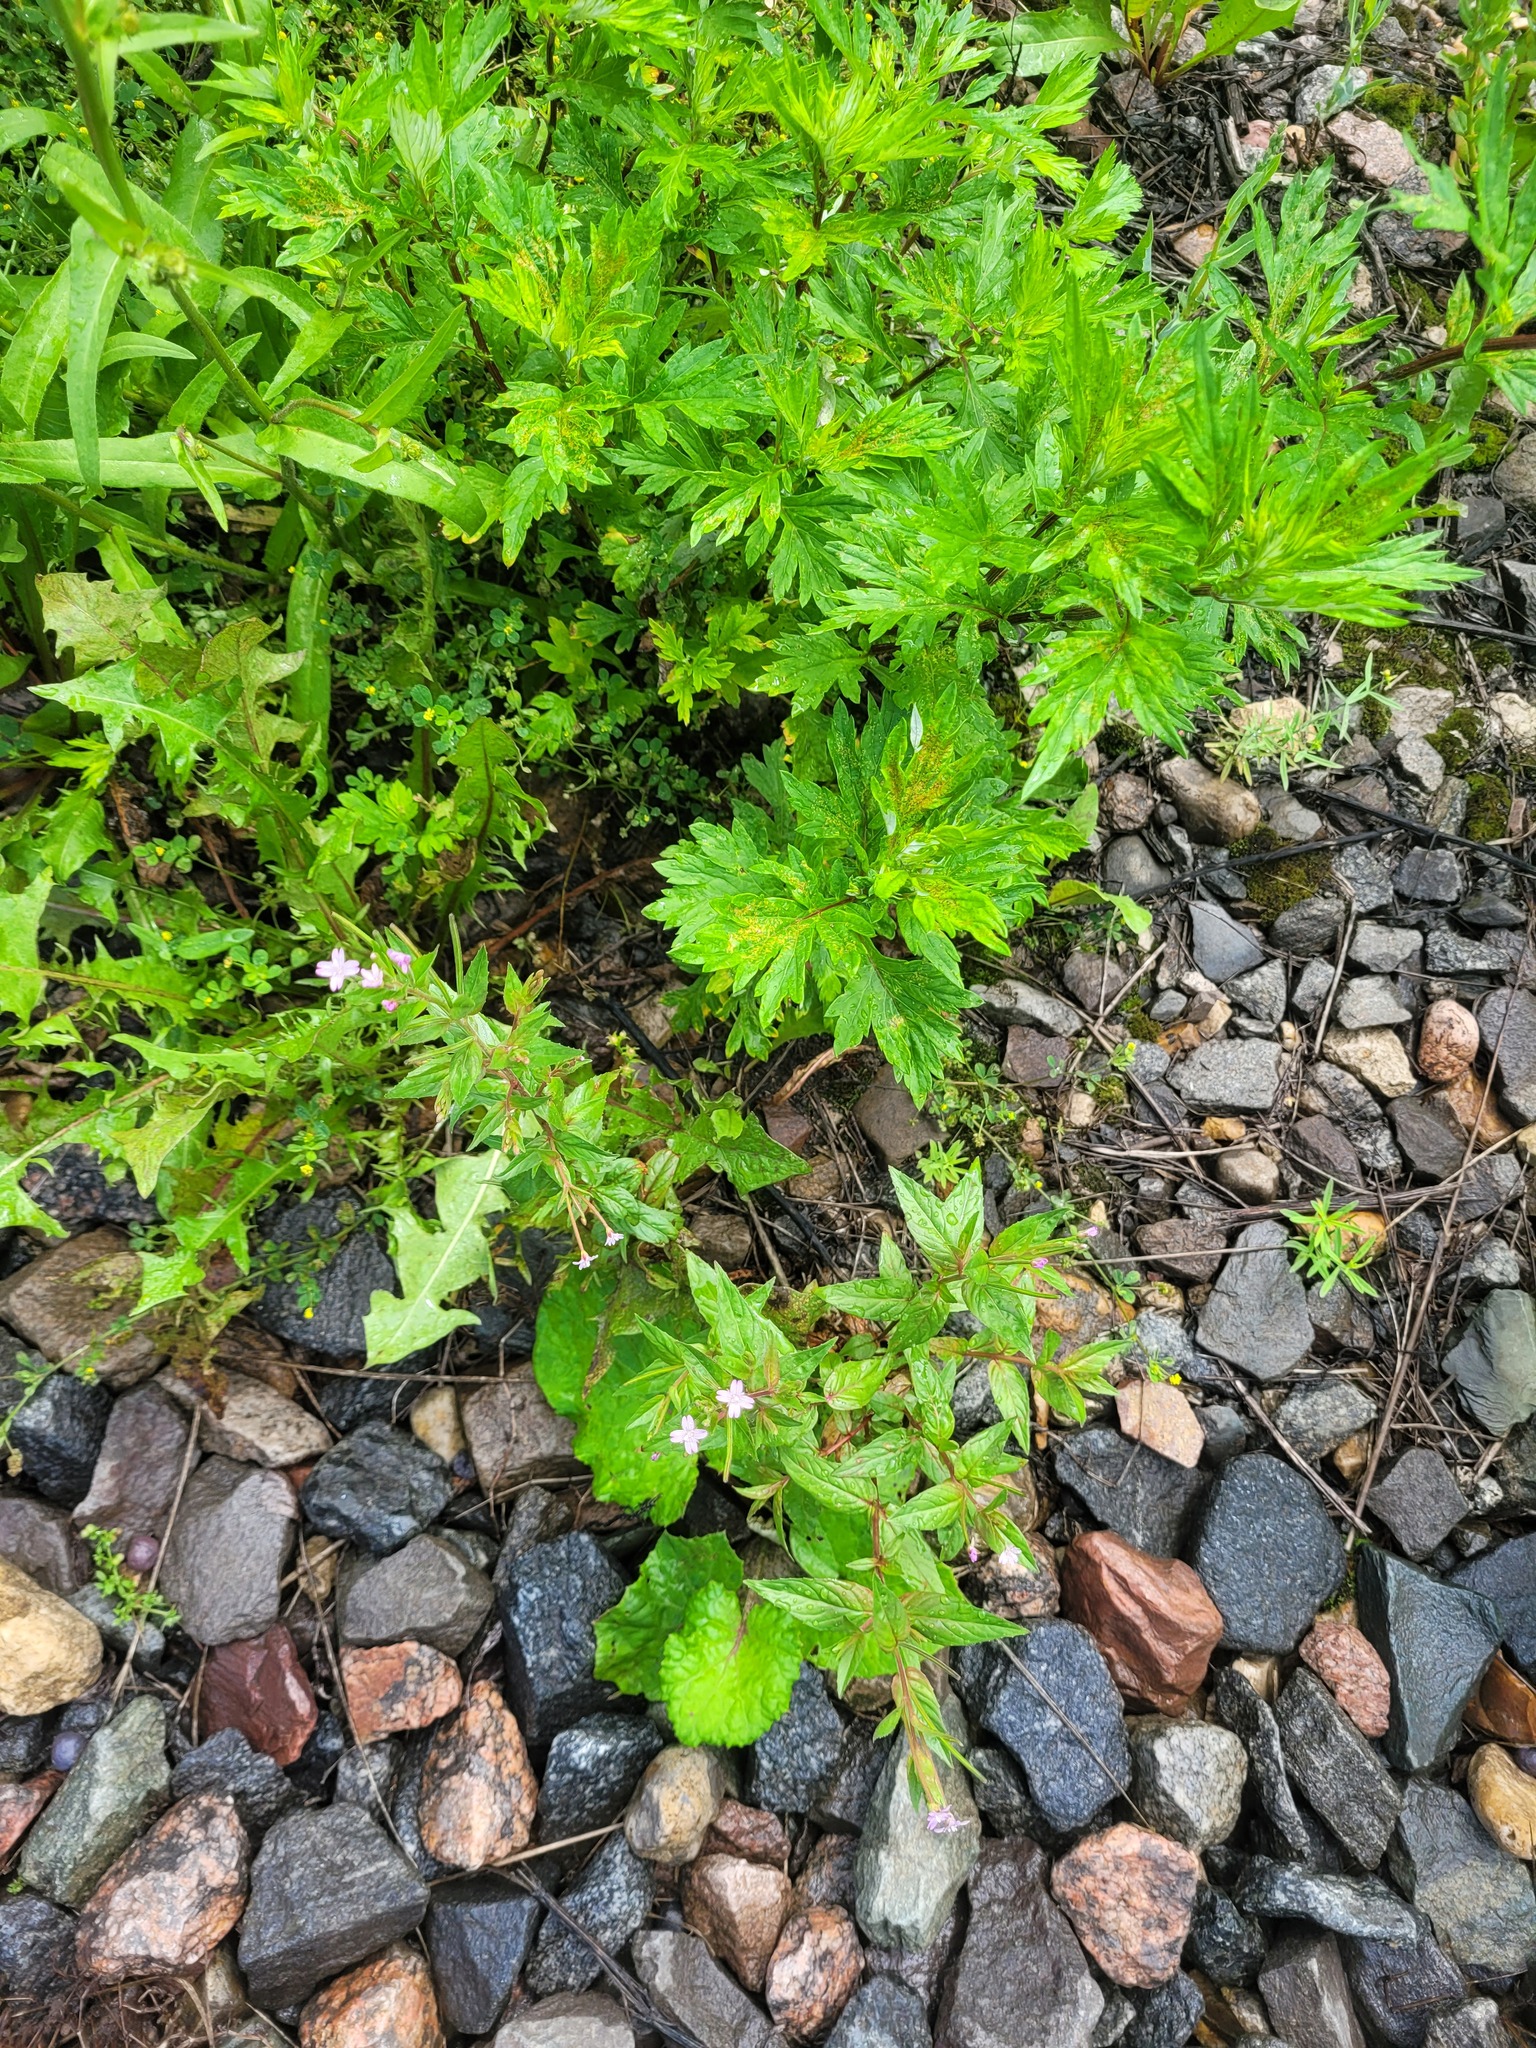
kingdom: Plantae
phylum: Tracheophyta
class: Magnoliopsida
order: Myrtales
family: Onagraceae
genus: Epilobium
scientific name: Epilobium ciliatum
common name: American willowherb
